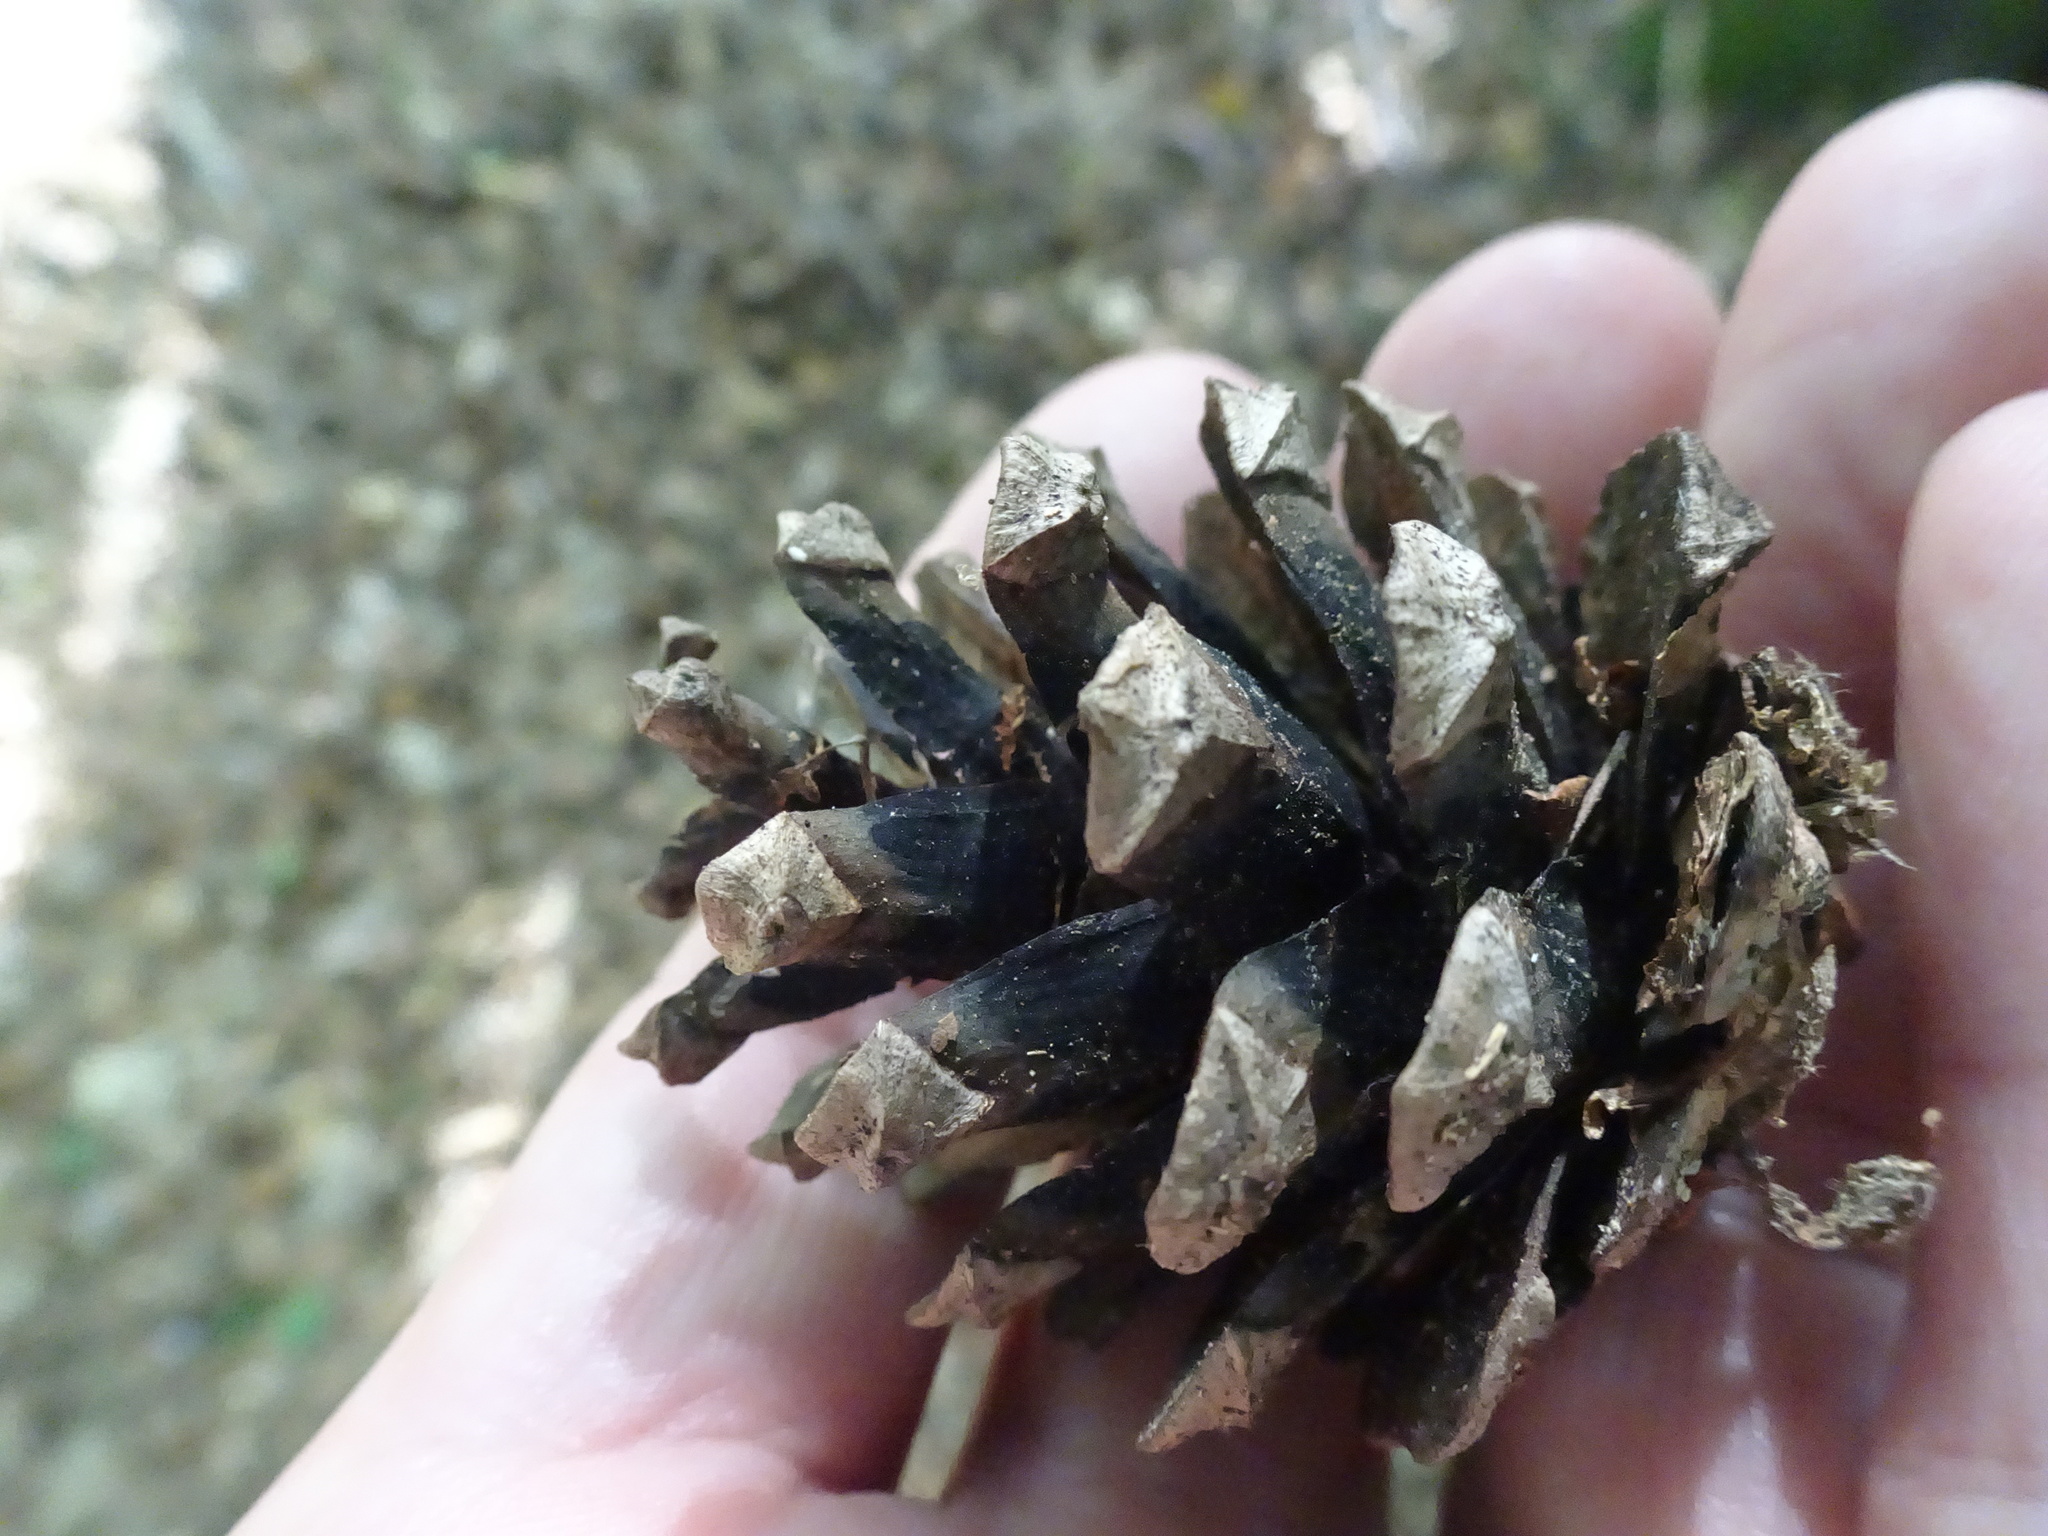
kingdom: Plantae
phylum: Tracheophyta
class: Pinopsida
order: Pinales
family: Pinaceae
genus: Pinus
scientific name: Pinus sylvestris
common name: Scots pine
